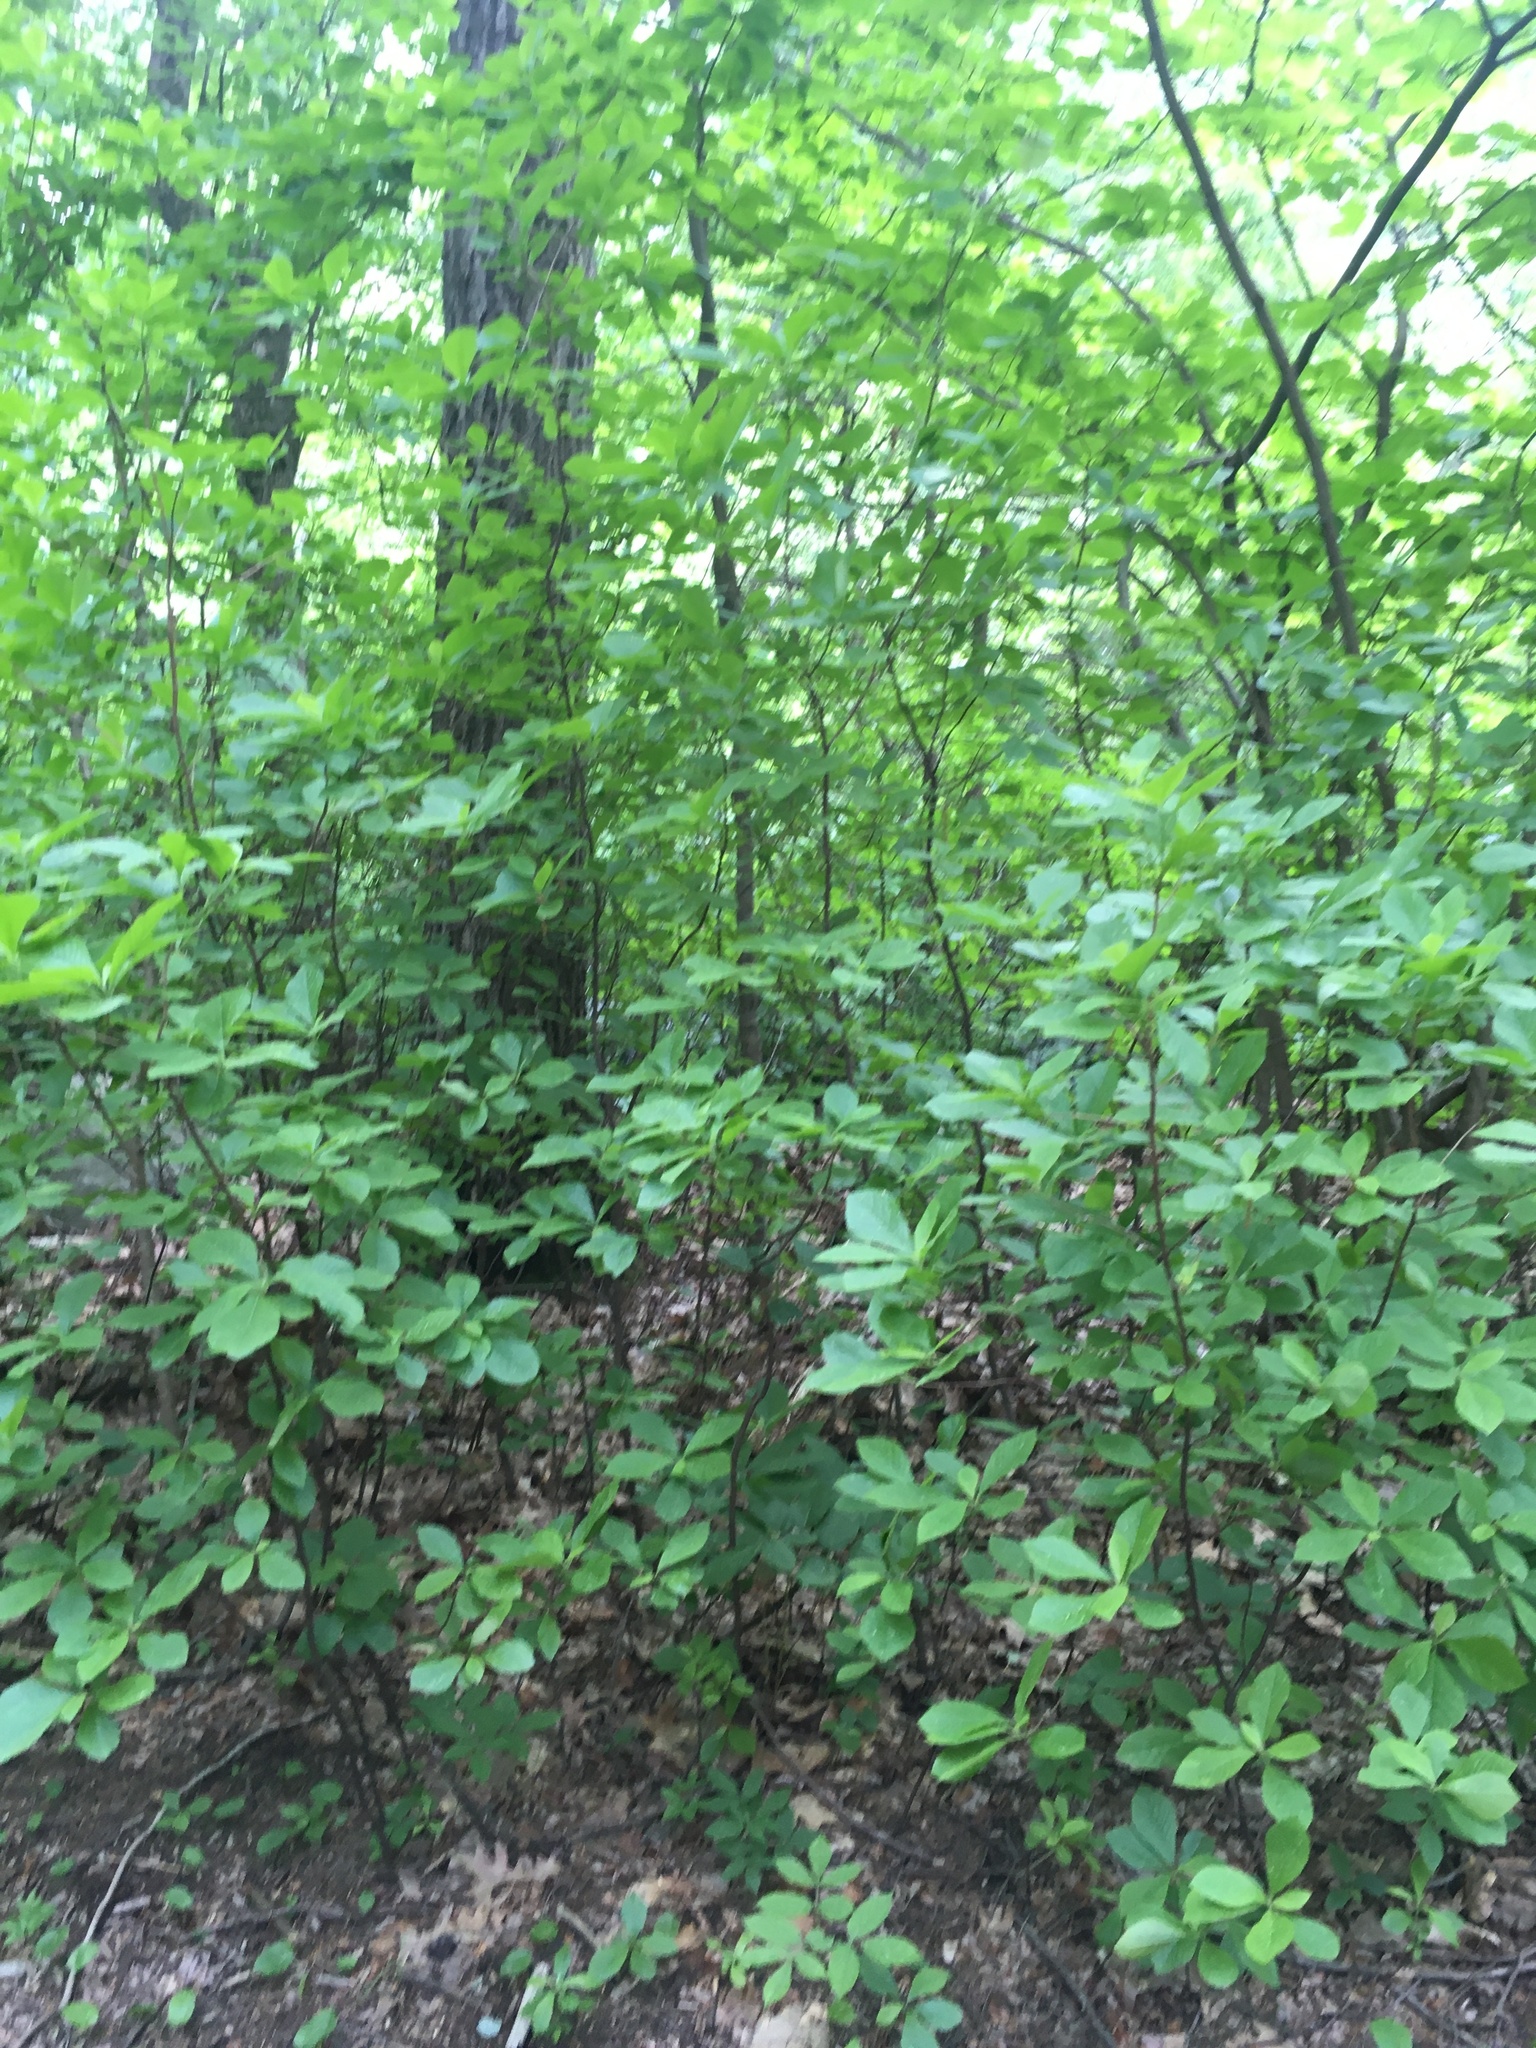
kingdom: Plantae
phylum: Tracheophyta
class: Magnoliopsida
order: Ericales
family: Clethraceae
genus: Clethra
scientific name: Clethra alnifolia
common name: Sweet pepperbush
